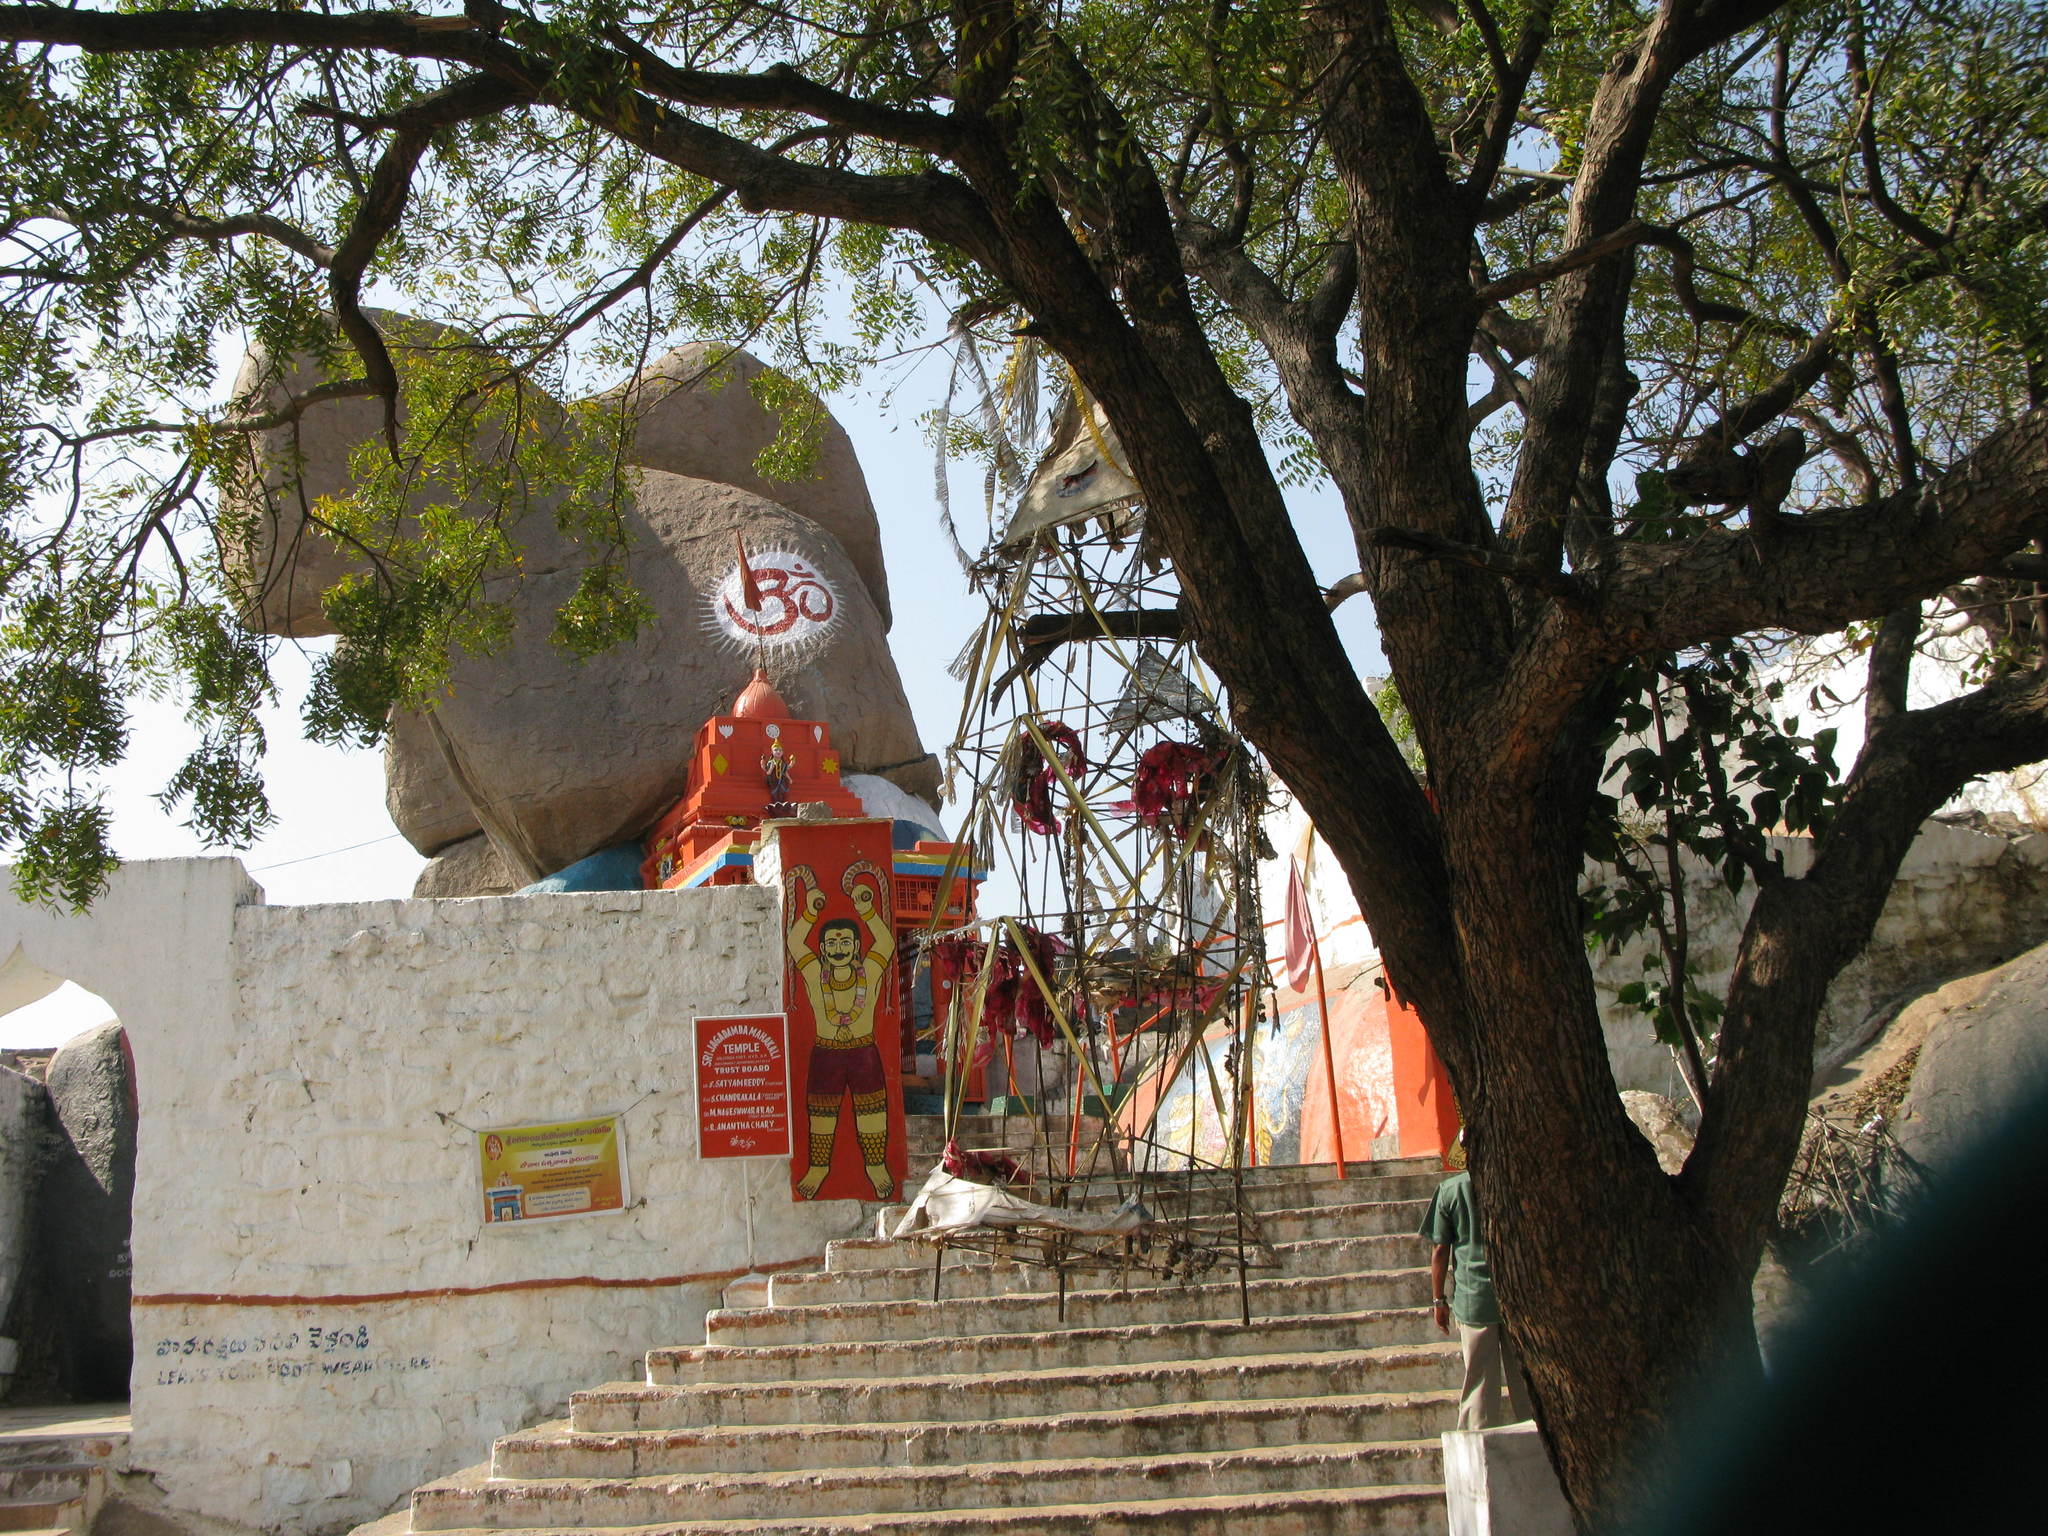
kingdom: Plantae
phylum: Tracheophyta
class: Magnoliopsida
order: Sapindales
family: Meliaceae
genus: Azadirachta
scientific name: Azadirachta indica
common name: Neem
